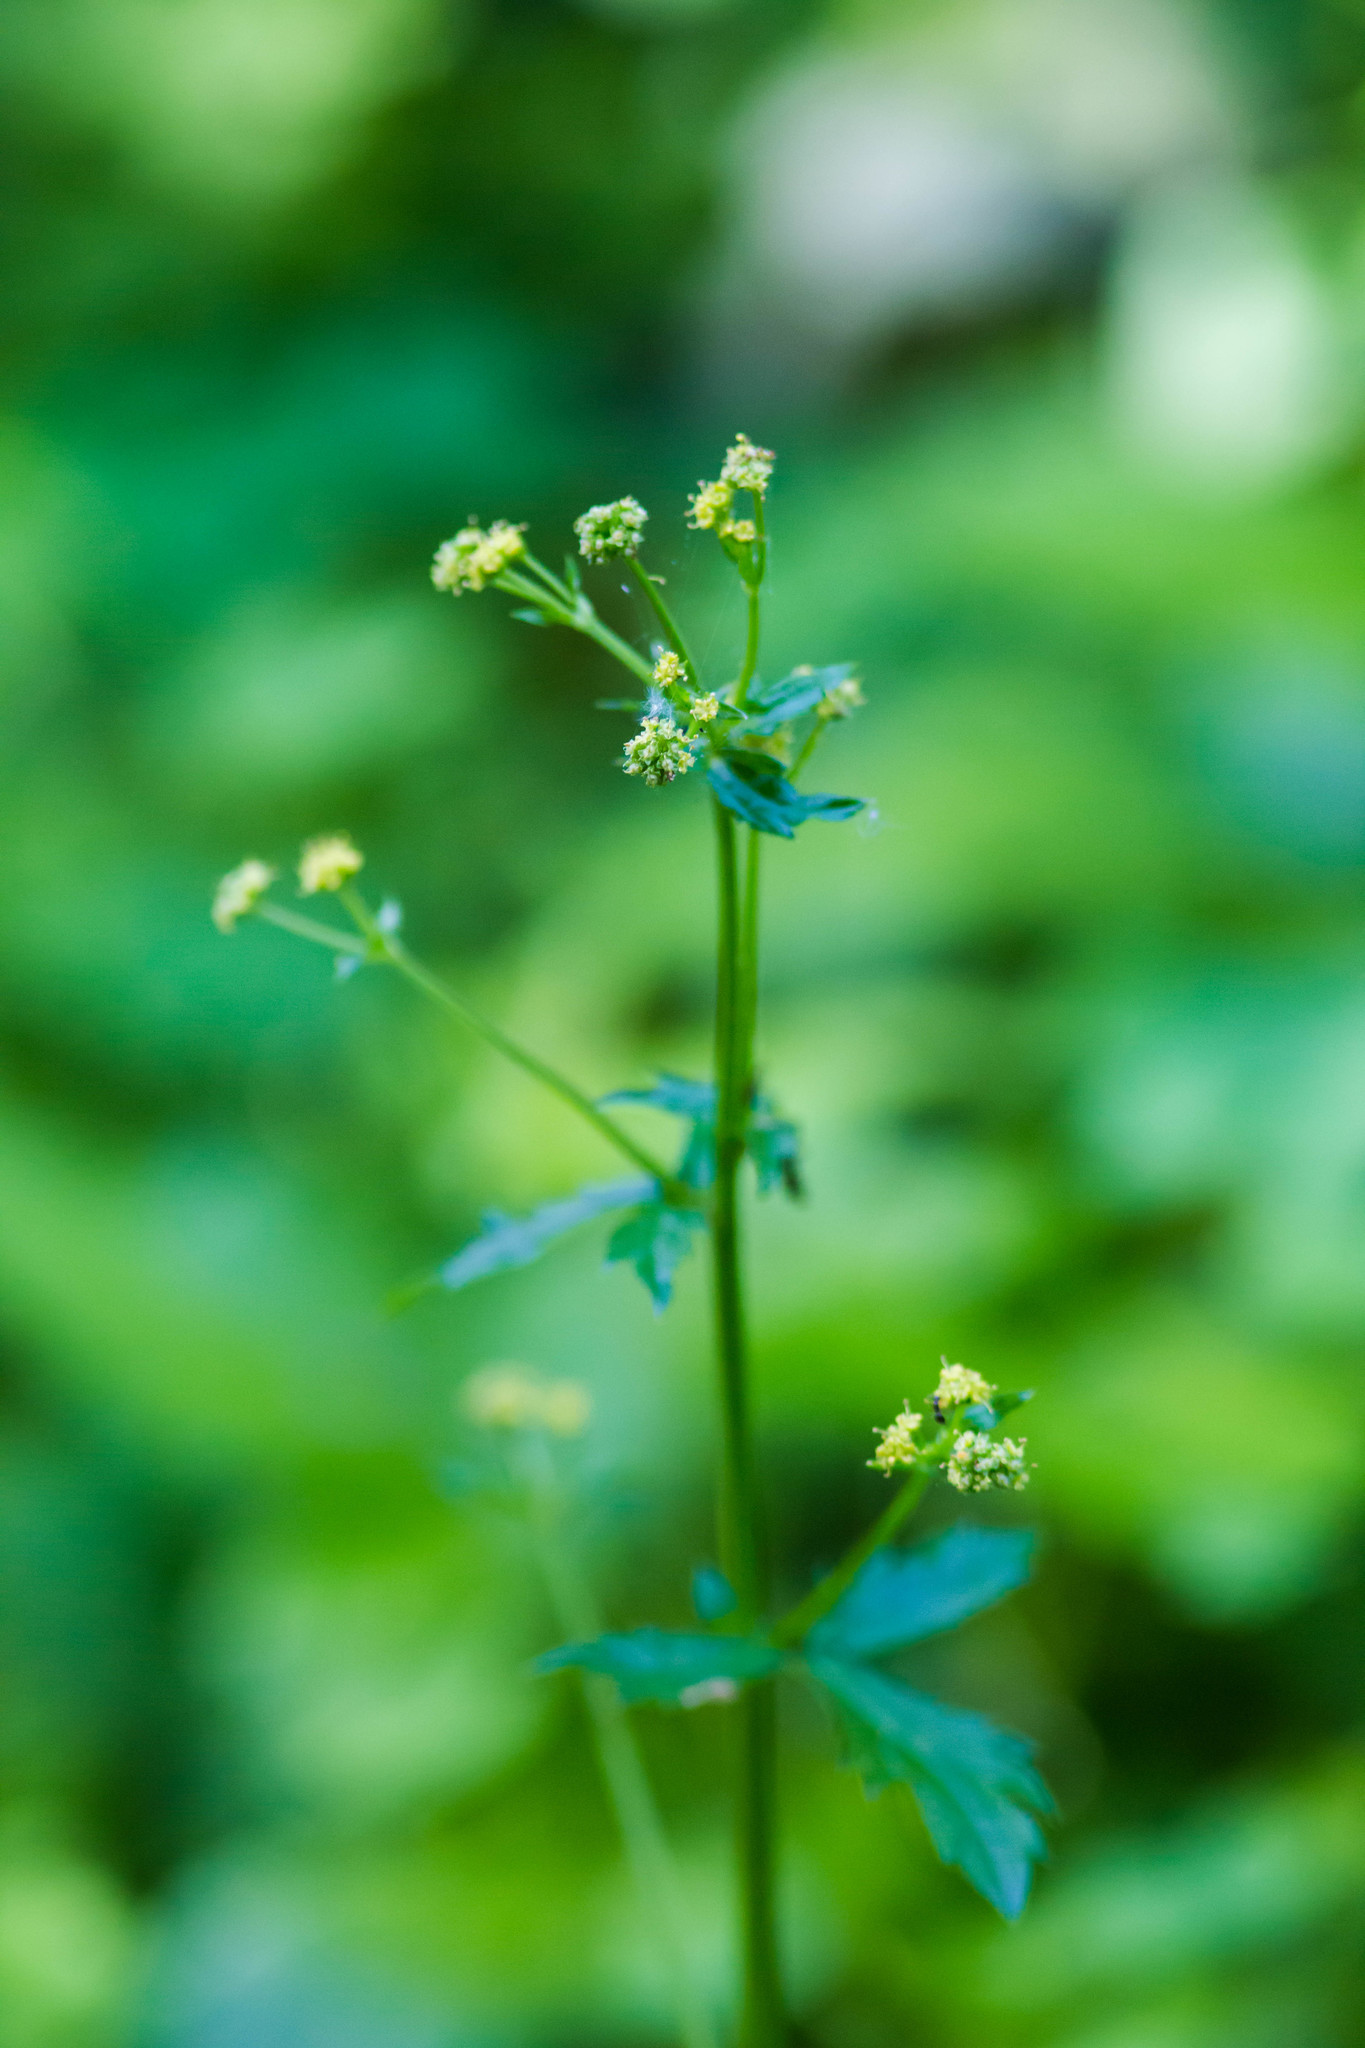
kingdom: Plantae
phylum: Tracheophyta
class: Magnoliopsida
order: Apiales
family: Apiaceae
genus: Sanicula
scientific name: Sanicula crassicaulis
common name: Western snakeroot
